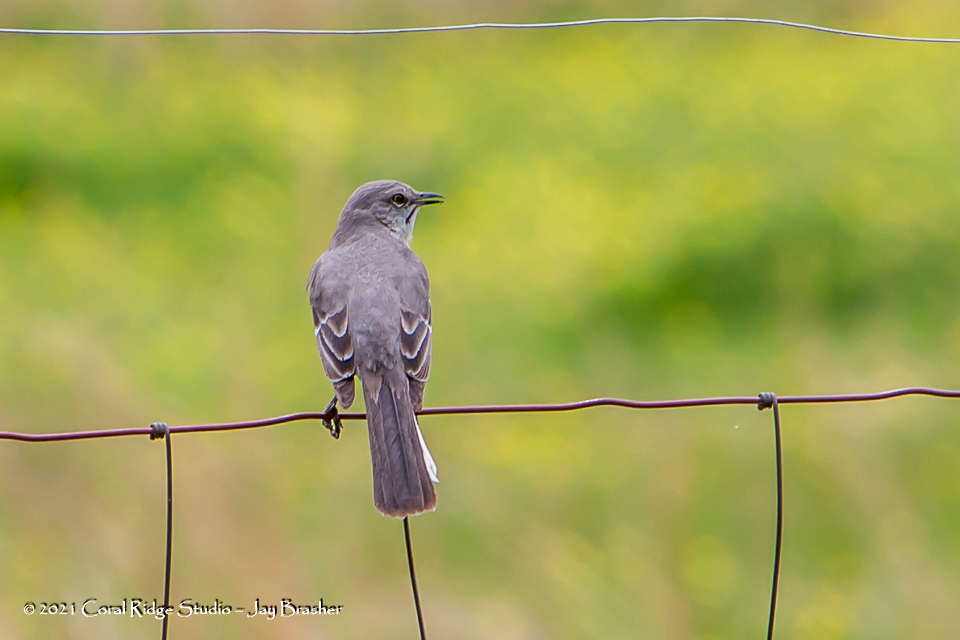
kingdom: Animalia
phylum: Chordata
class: Aves
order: Passeriformes
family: Mimidae
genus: Mimus
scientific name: Mimus polyglottos
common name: Northern mockingbird
